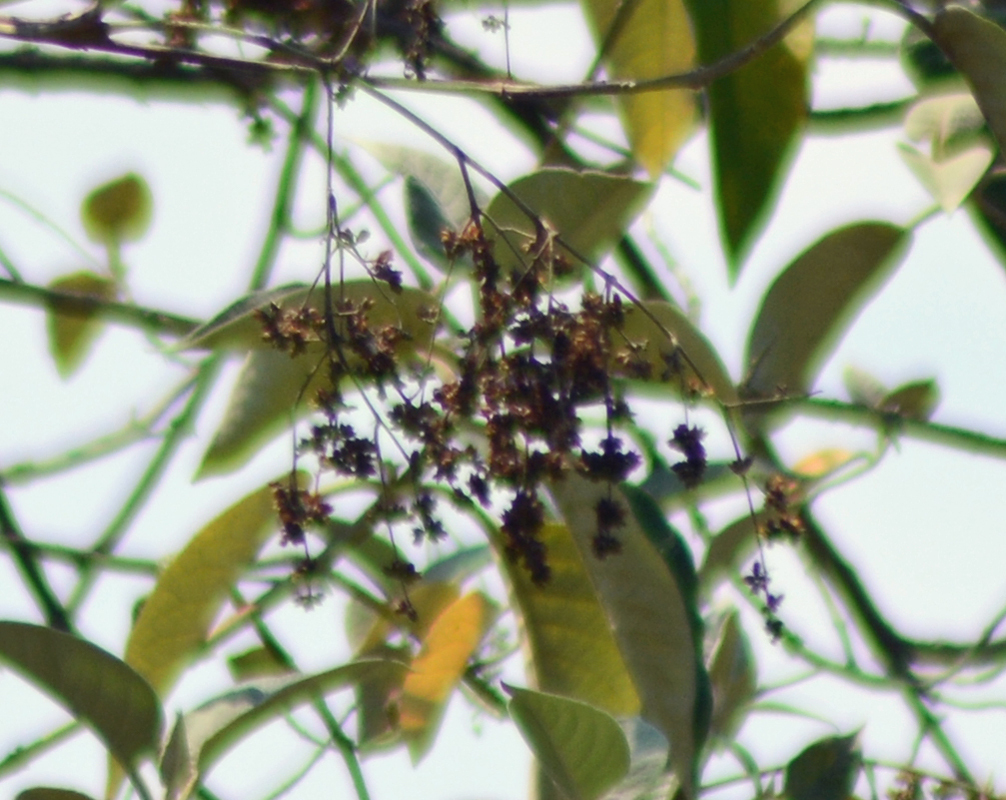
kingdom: Plantae
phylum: Tracheophyta
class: Magnoliopsida
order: Lamiales
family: Scrophulariaceae
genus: Buddleja
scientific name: Buddleja cordata
